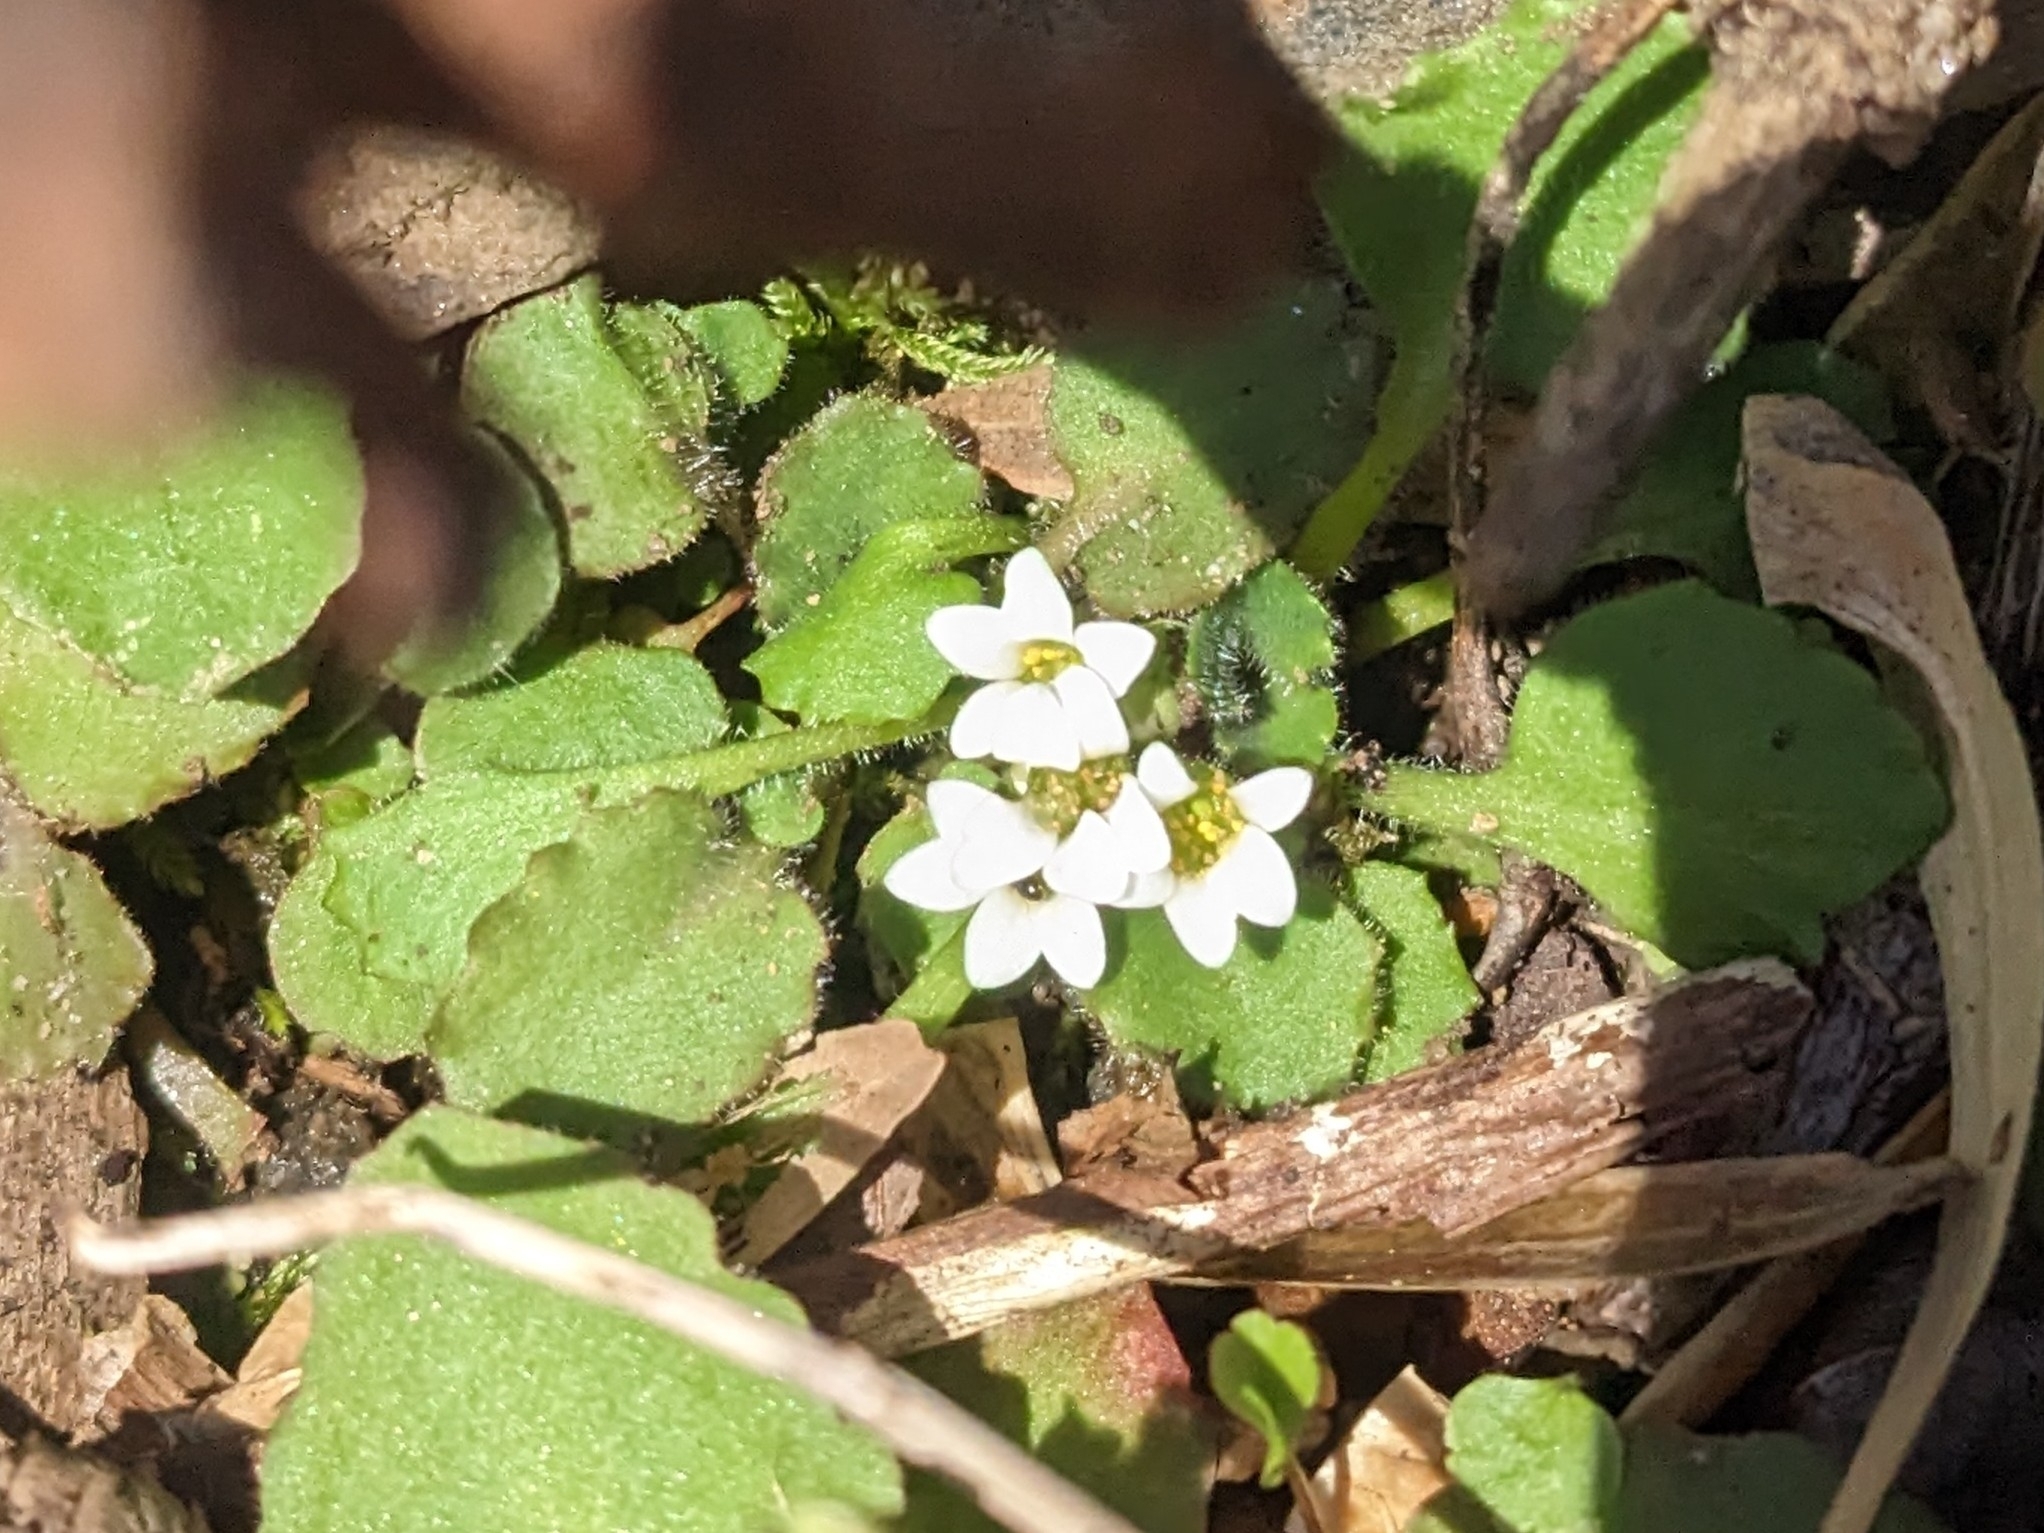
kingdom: Plantae
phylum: Tracheophyta
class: Magnoliopsida
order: Saxifragales
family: Saxifragaceae
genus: Micranthes
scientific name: Micranthes virginiensis
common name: Early saxifrage
